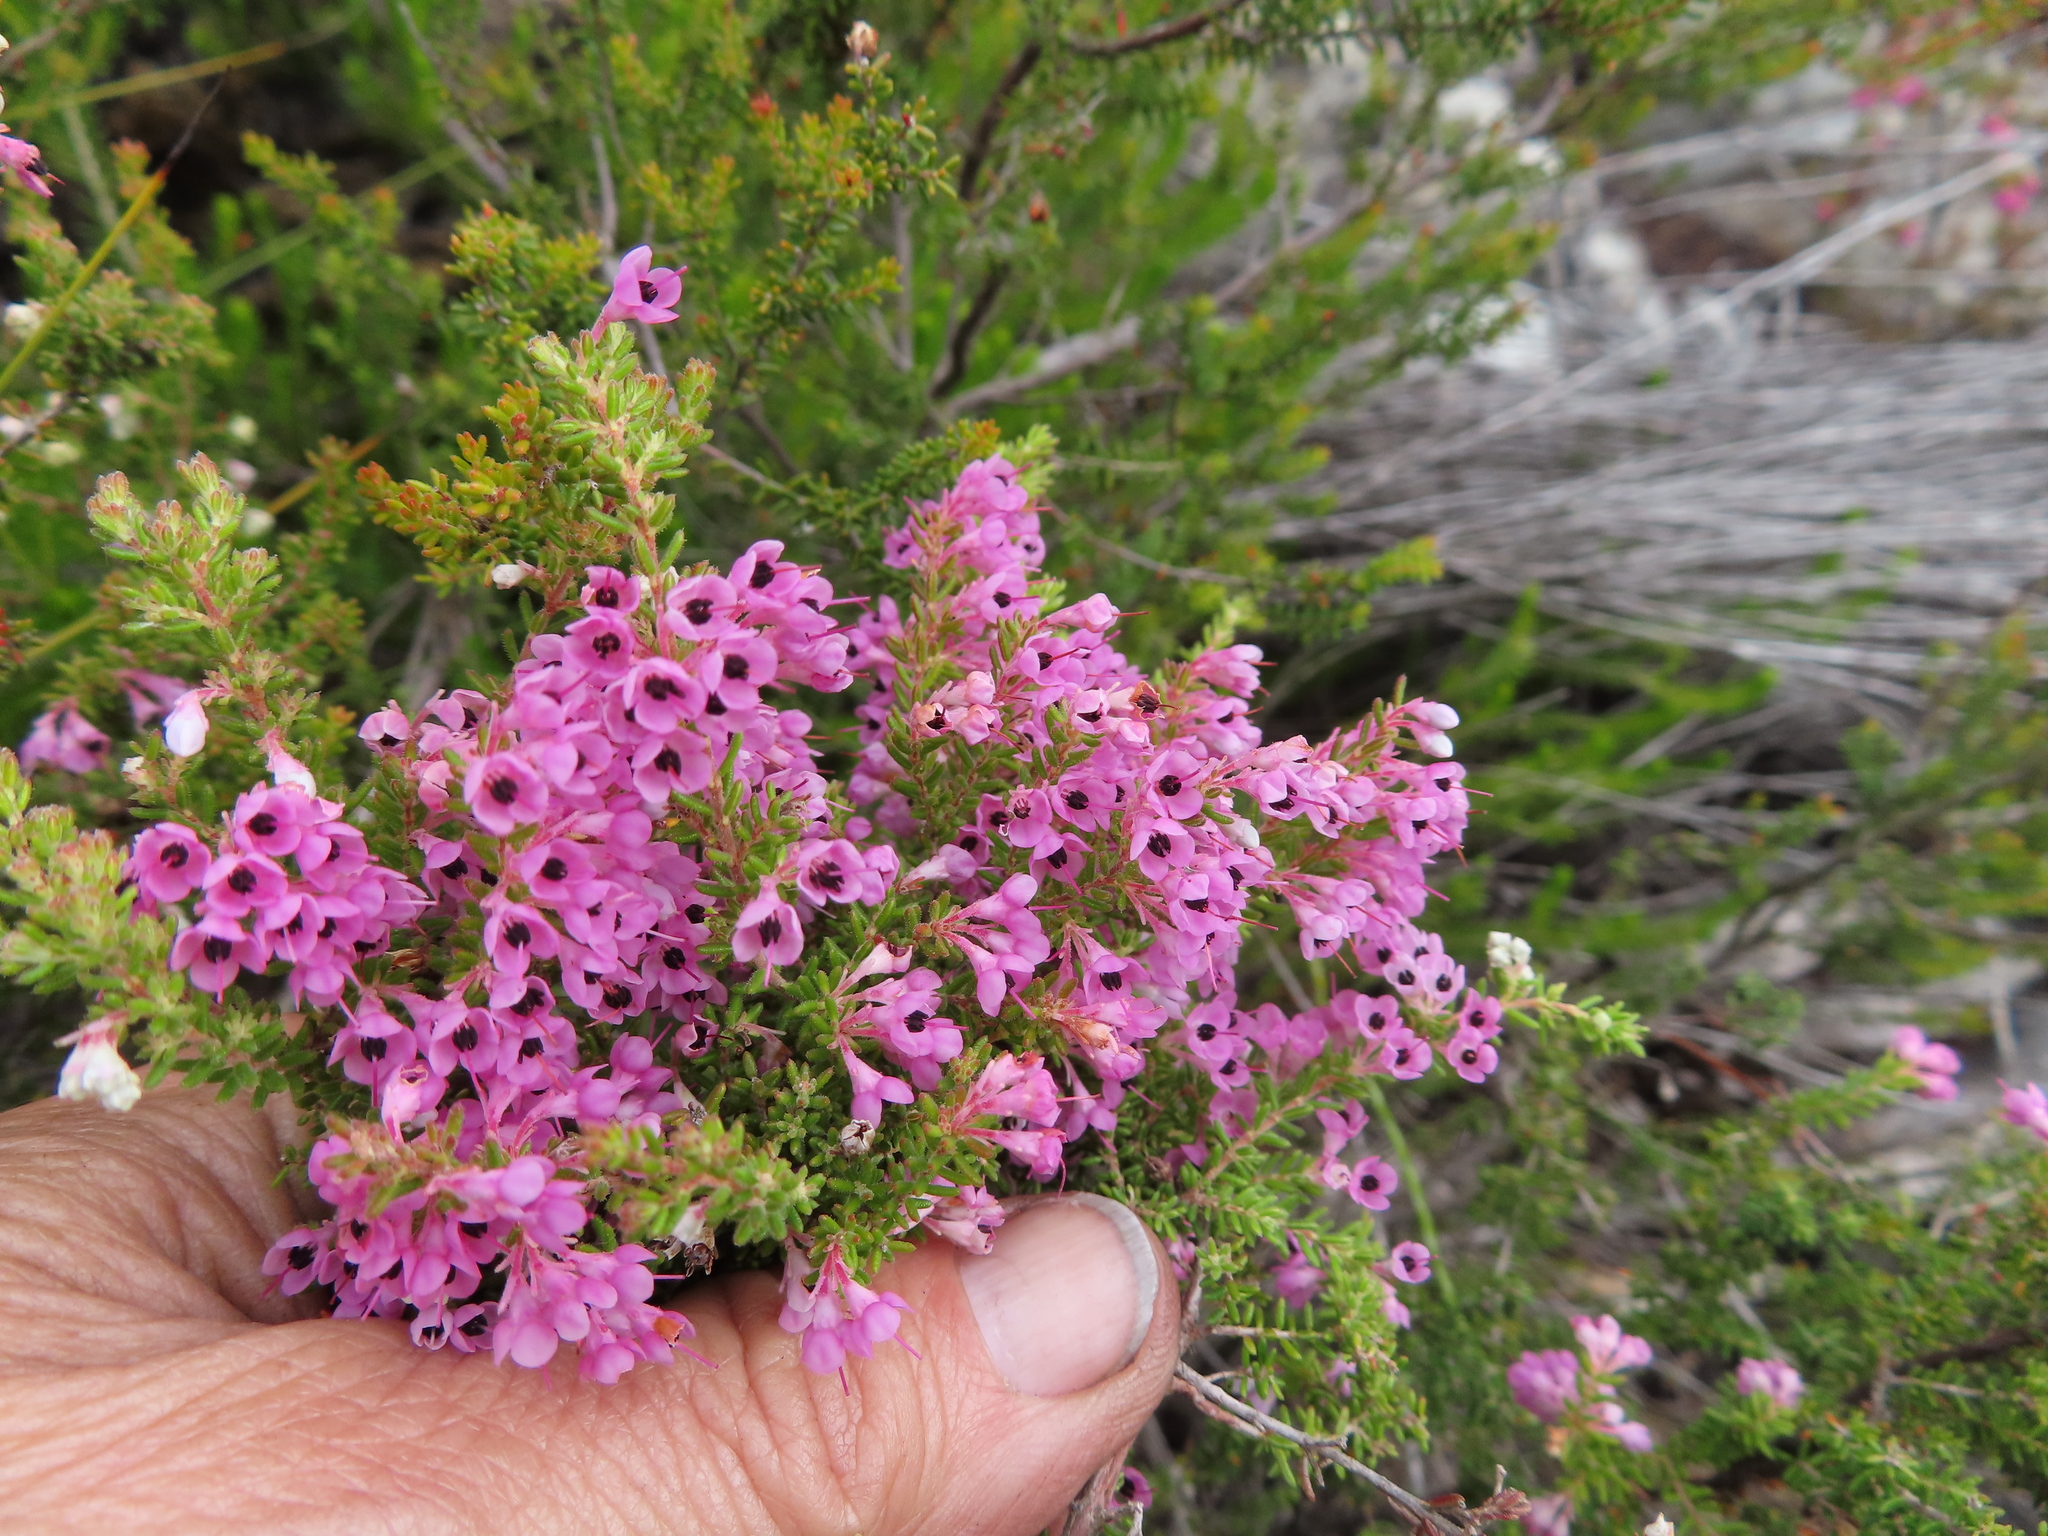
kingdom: Plantae
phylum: Tracheophyta
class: Magnoliopsida
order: Ericales
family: Ericaceae
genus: Erica
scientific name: Erica melanthera
